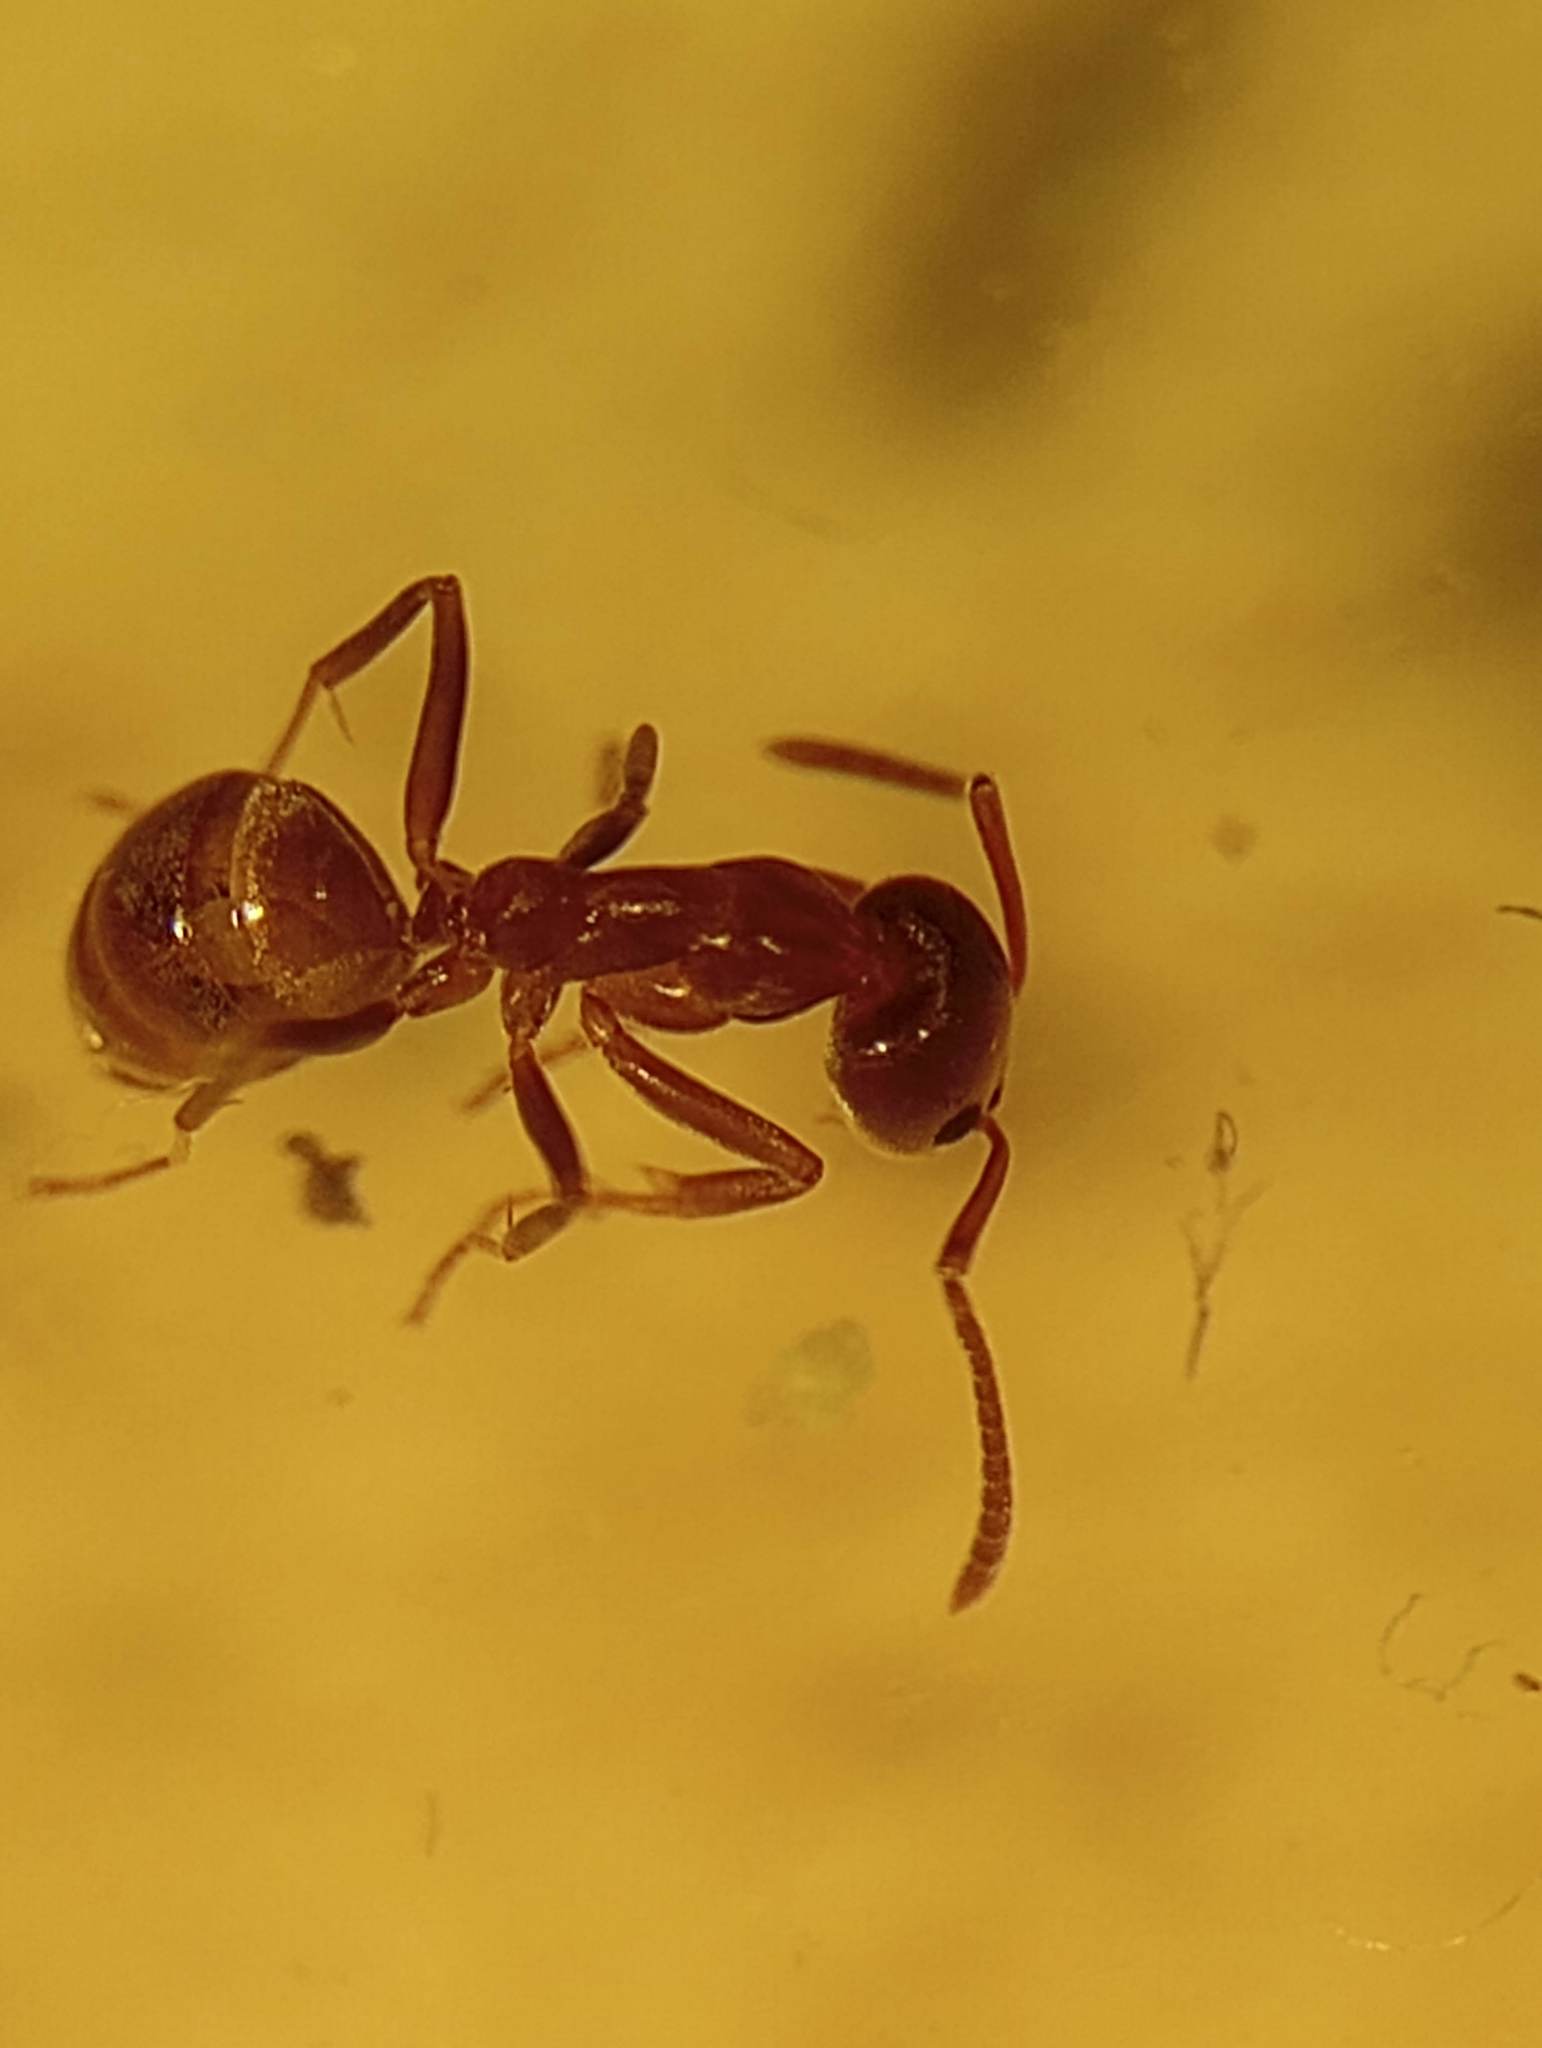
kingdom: Animalia
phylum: Arthropoda
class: Insecta
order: Hymenoptera
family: Formicidae
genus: Linepithema
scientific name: Linepithema humile
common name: Argentine ant
